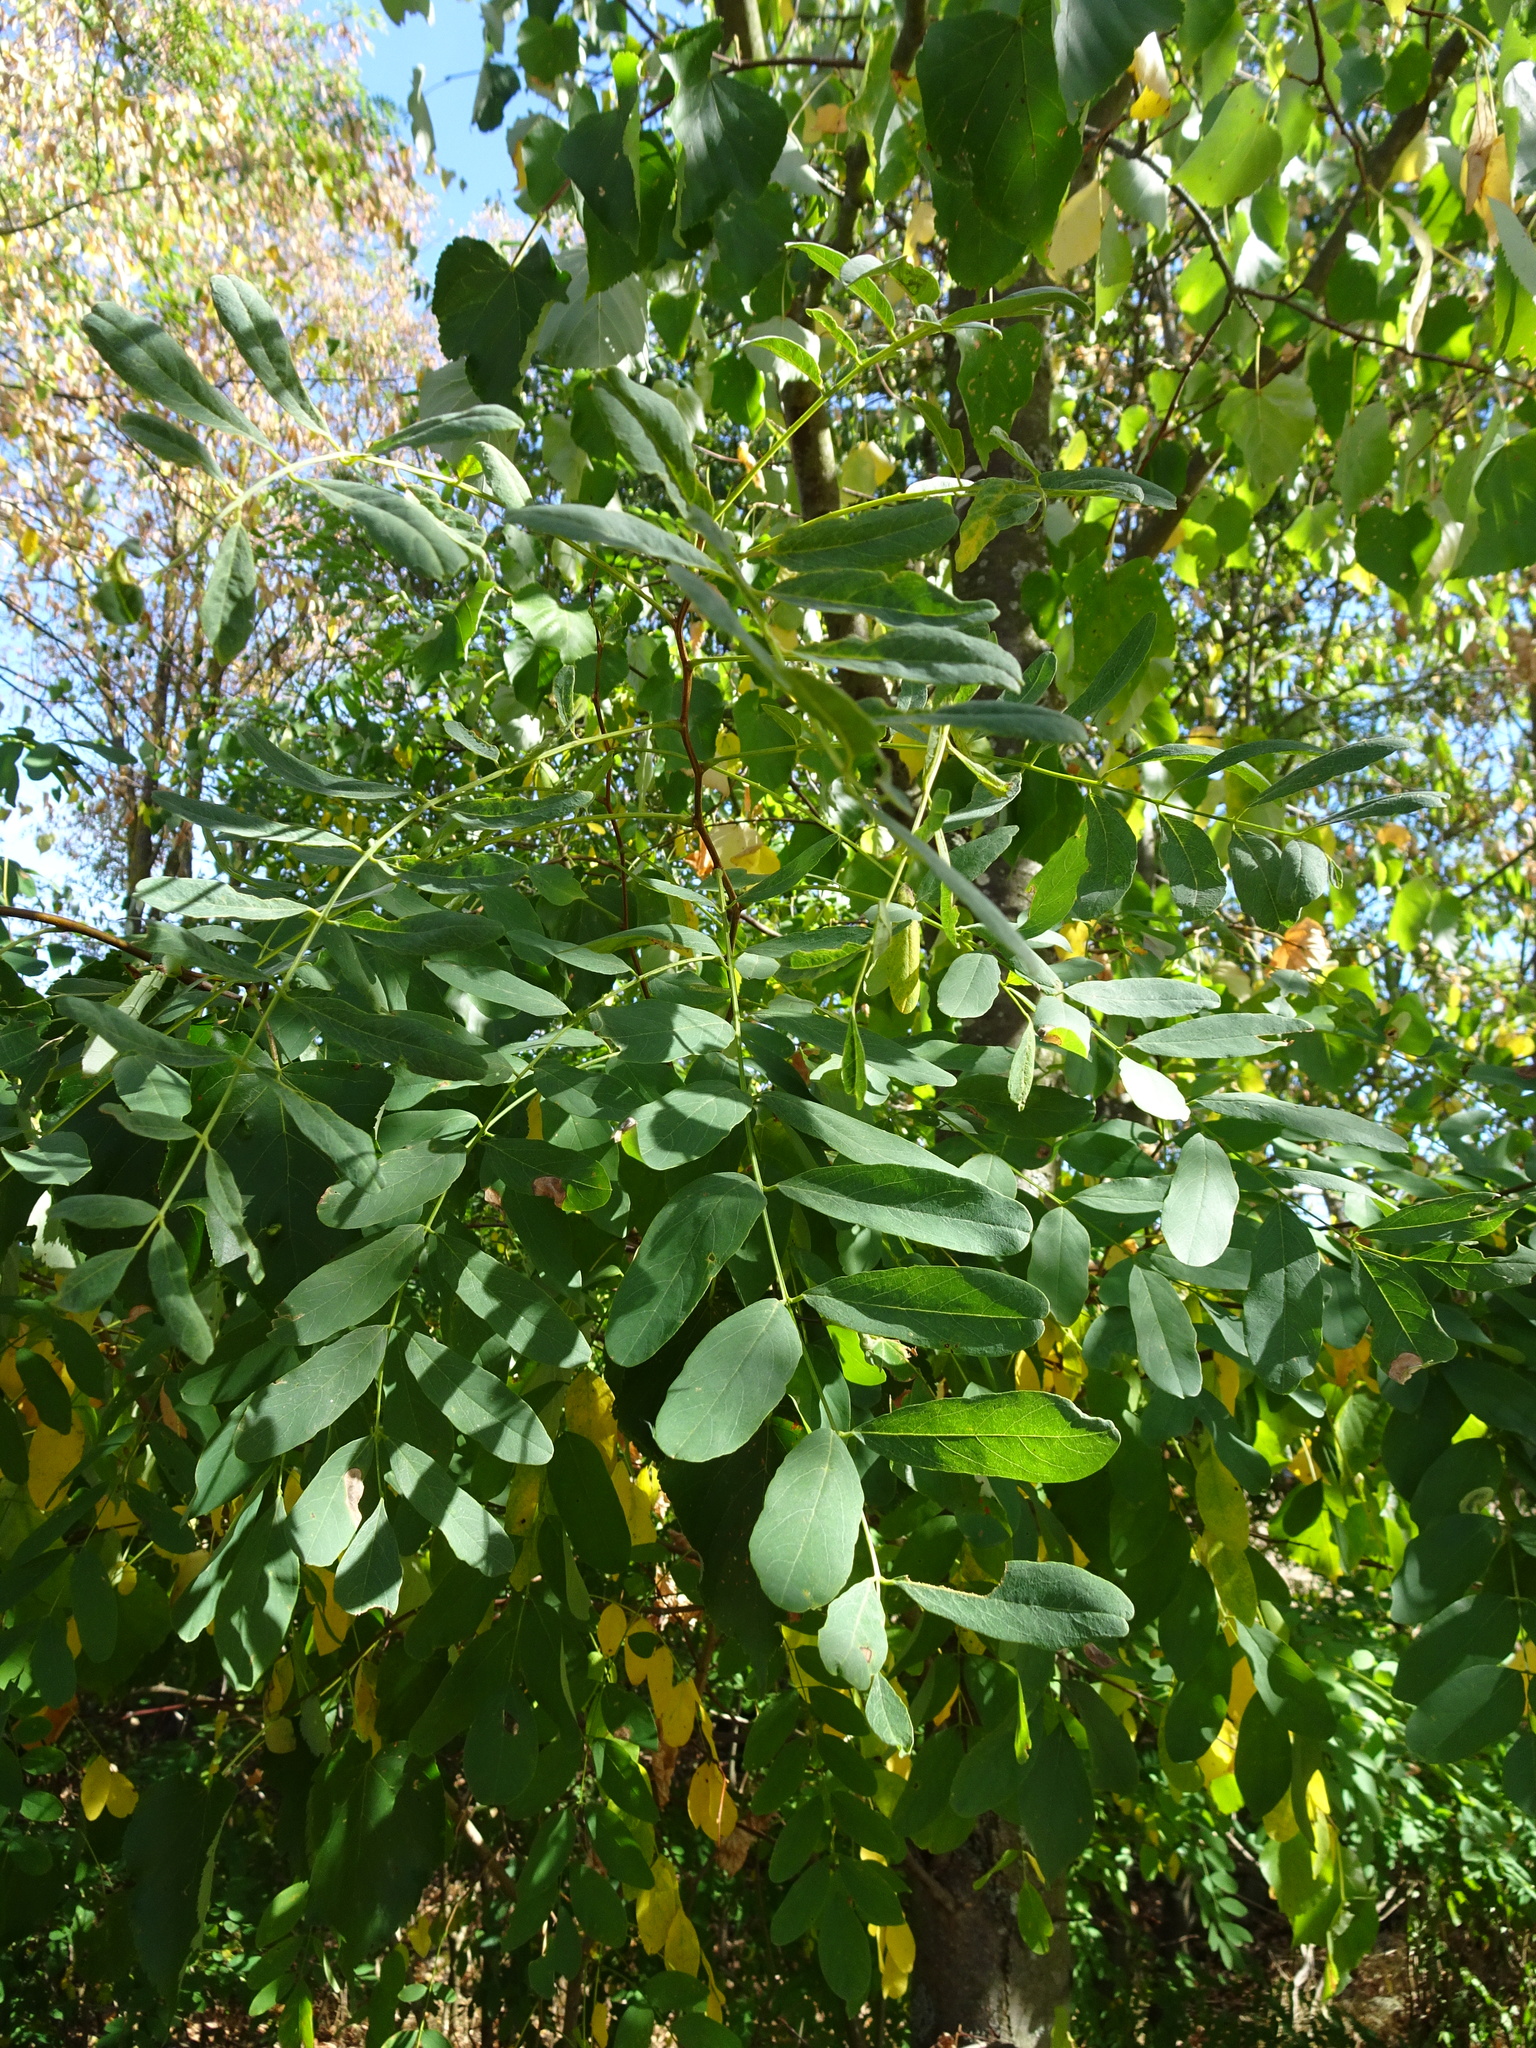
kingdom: Plantae
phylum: Tracheophyta
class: Magnoliopsida
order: Fabales
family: Fabaceae
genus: Robinia
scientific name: Robinia pseudoacacia
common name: Black locust
